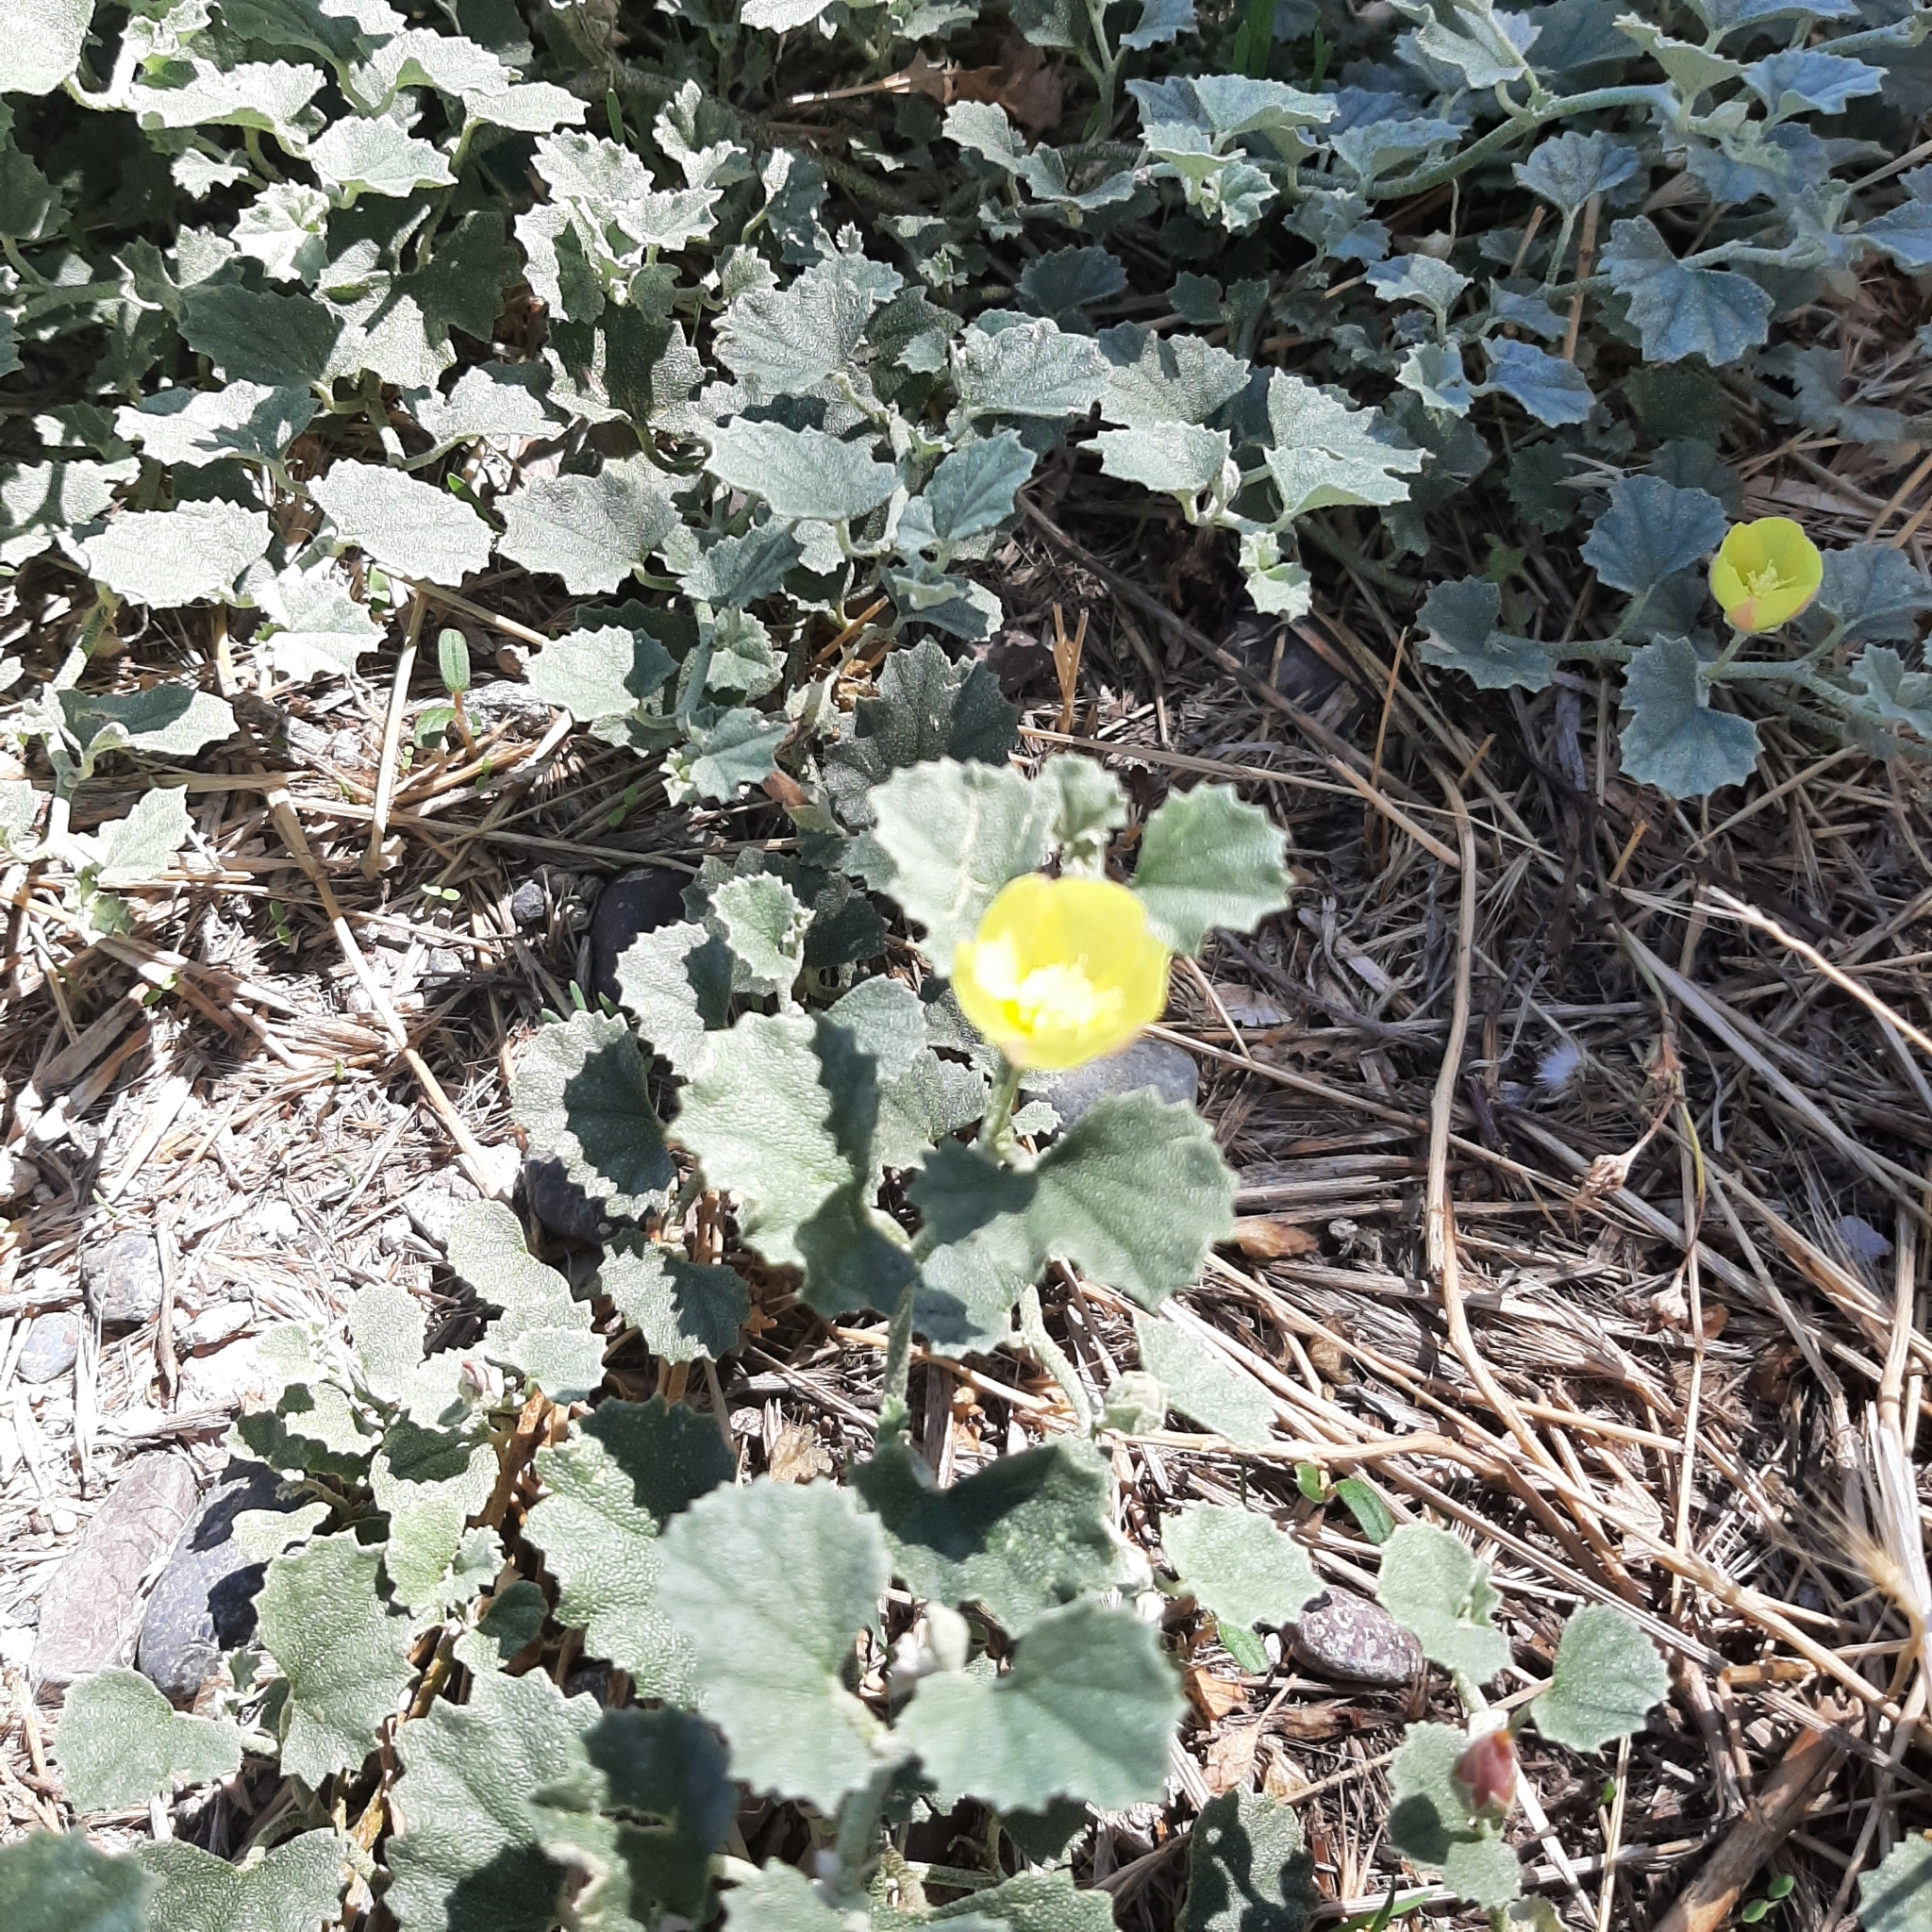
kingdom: Plantae
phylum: Tracheophyta
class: Magnoliopsida
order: Malvales
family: Malvaceae
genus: Malvella
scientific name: Malvella leprosa
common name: Alkali-mallow
